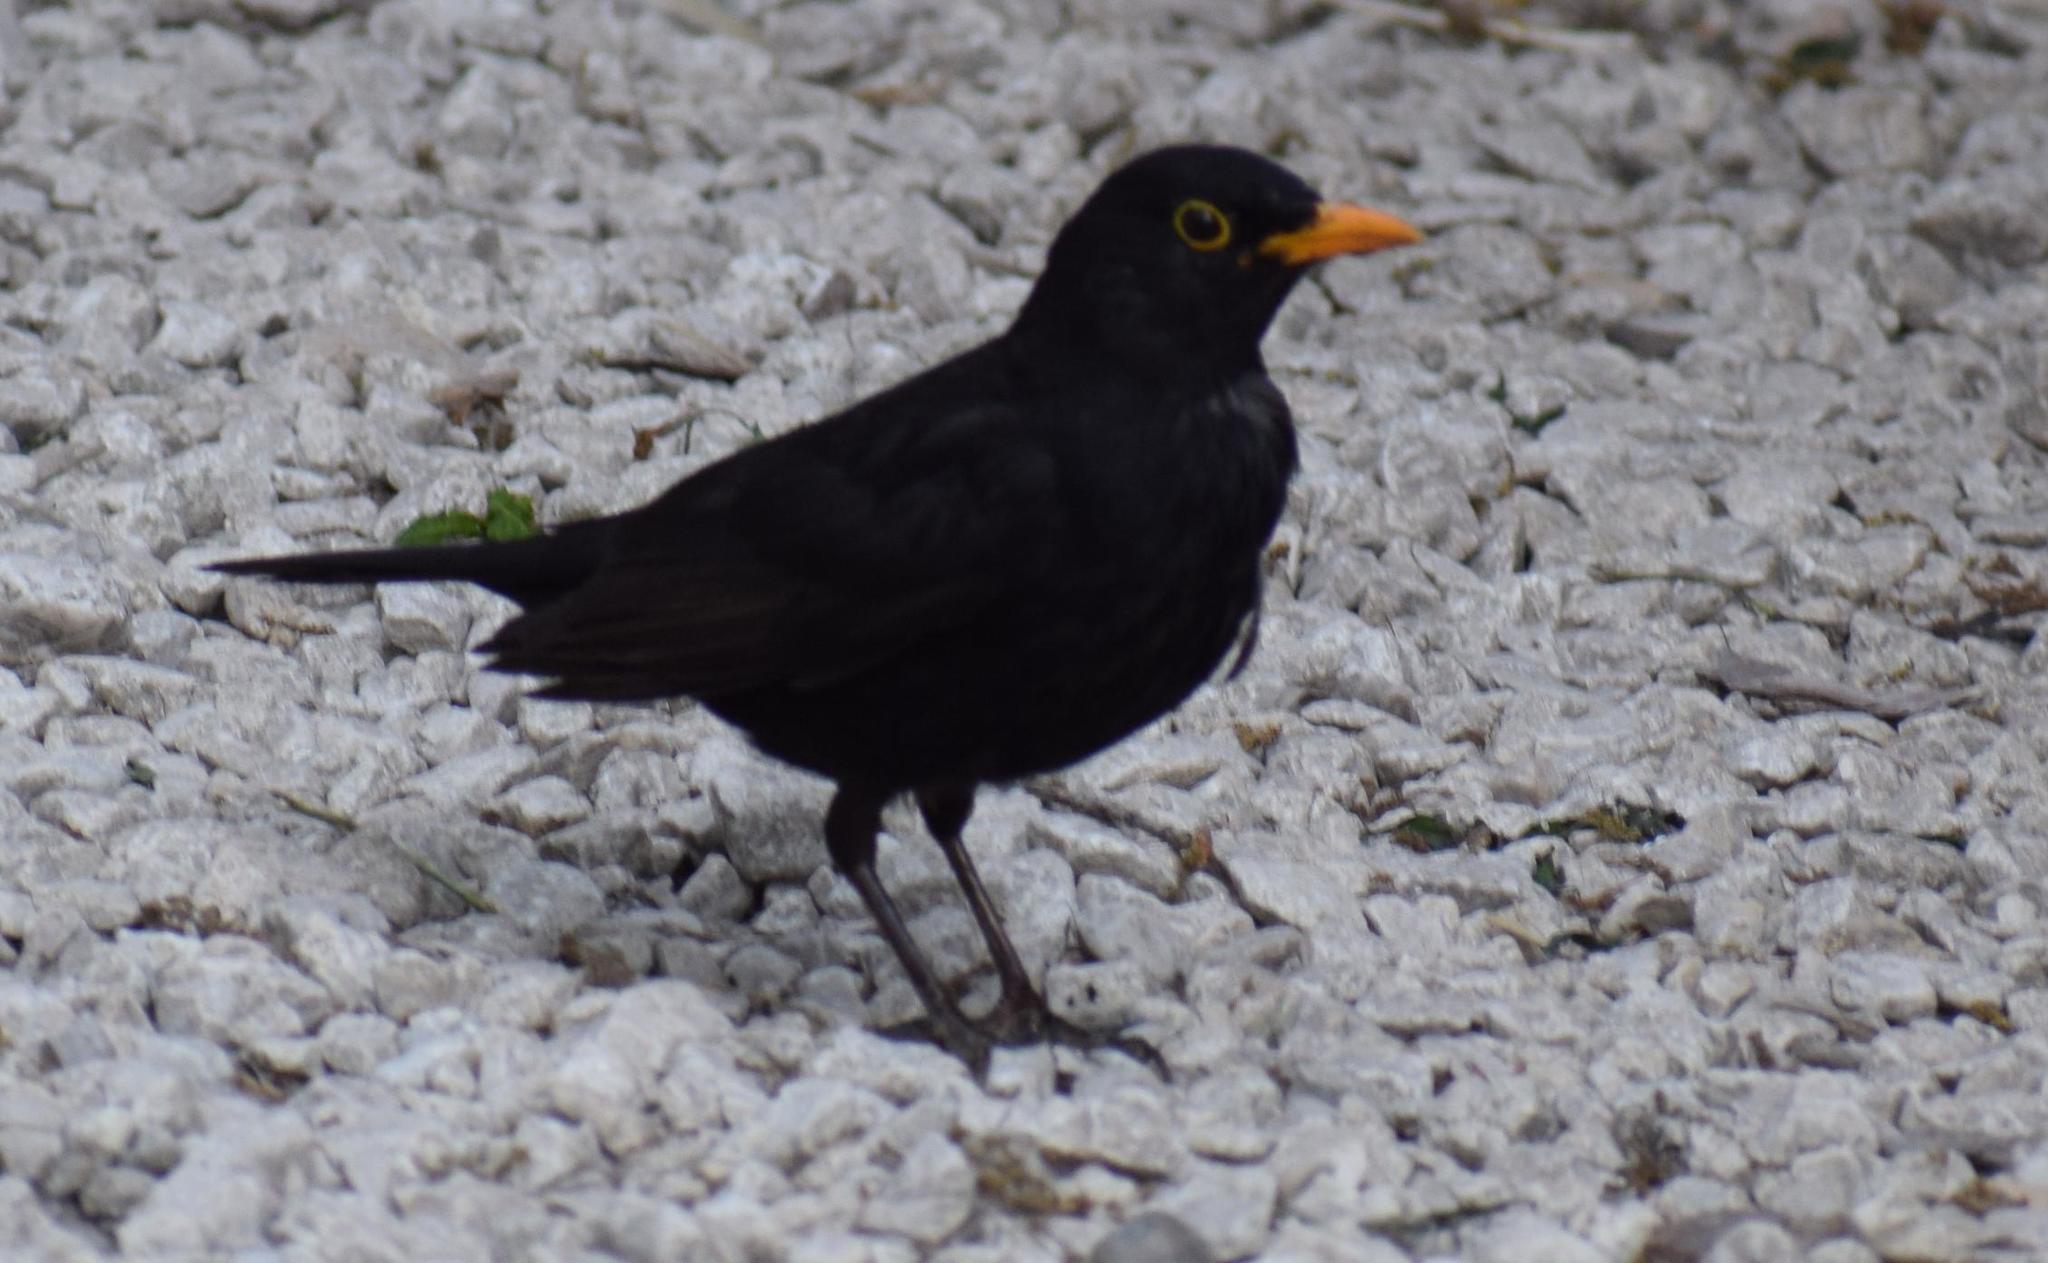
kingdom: Animalia
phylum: Chordata
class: Aves
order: Passeriformes
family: Turdidae
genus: Turdus
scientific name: Turdus merula
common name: Common blackbird
